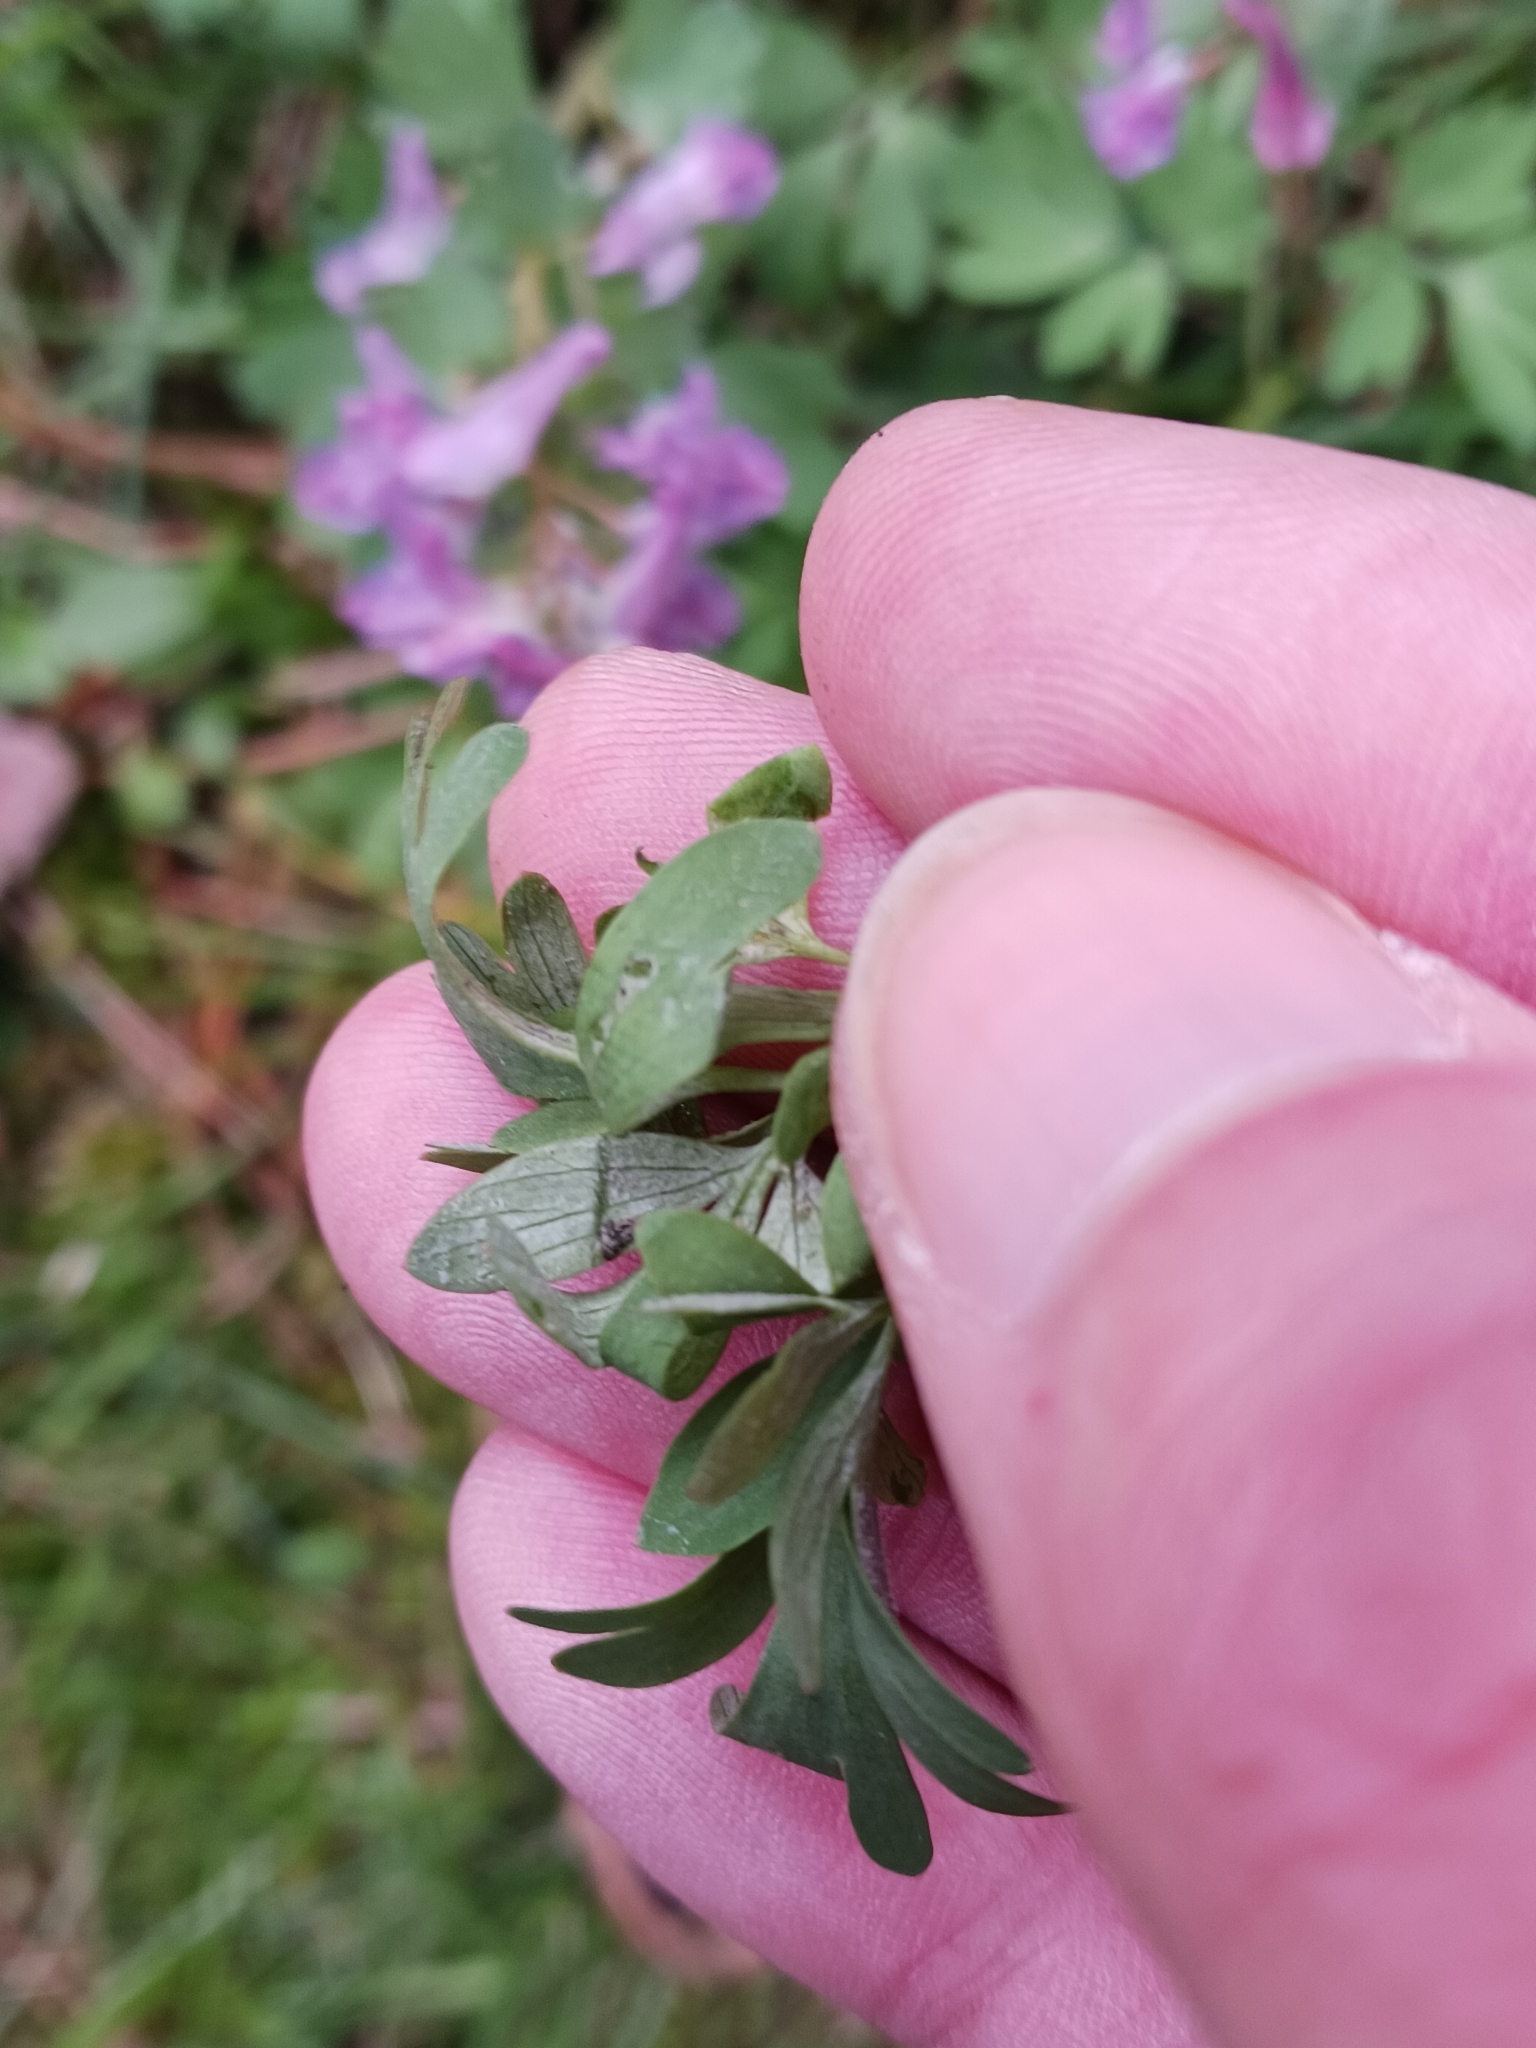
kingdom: Chromista
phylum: Oomycota
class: Peronosporea
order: Peronosporales
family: Peronosporaceae
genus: Peronospora
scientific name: Peronospora corydalis
